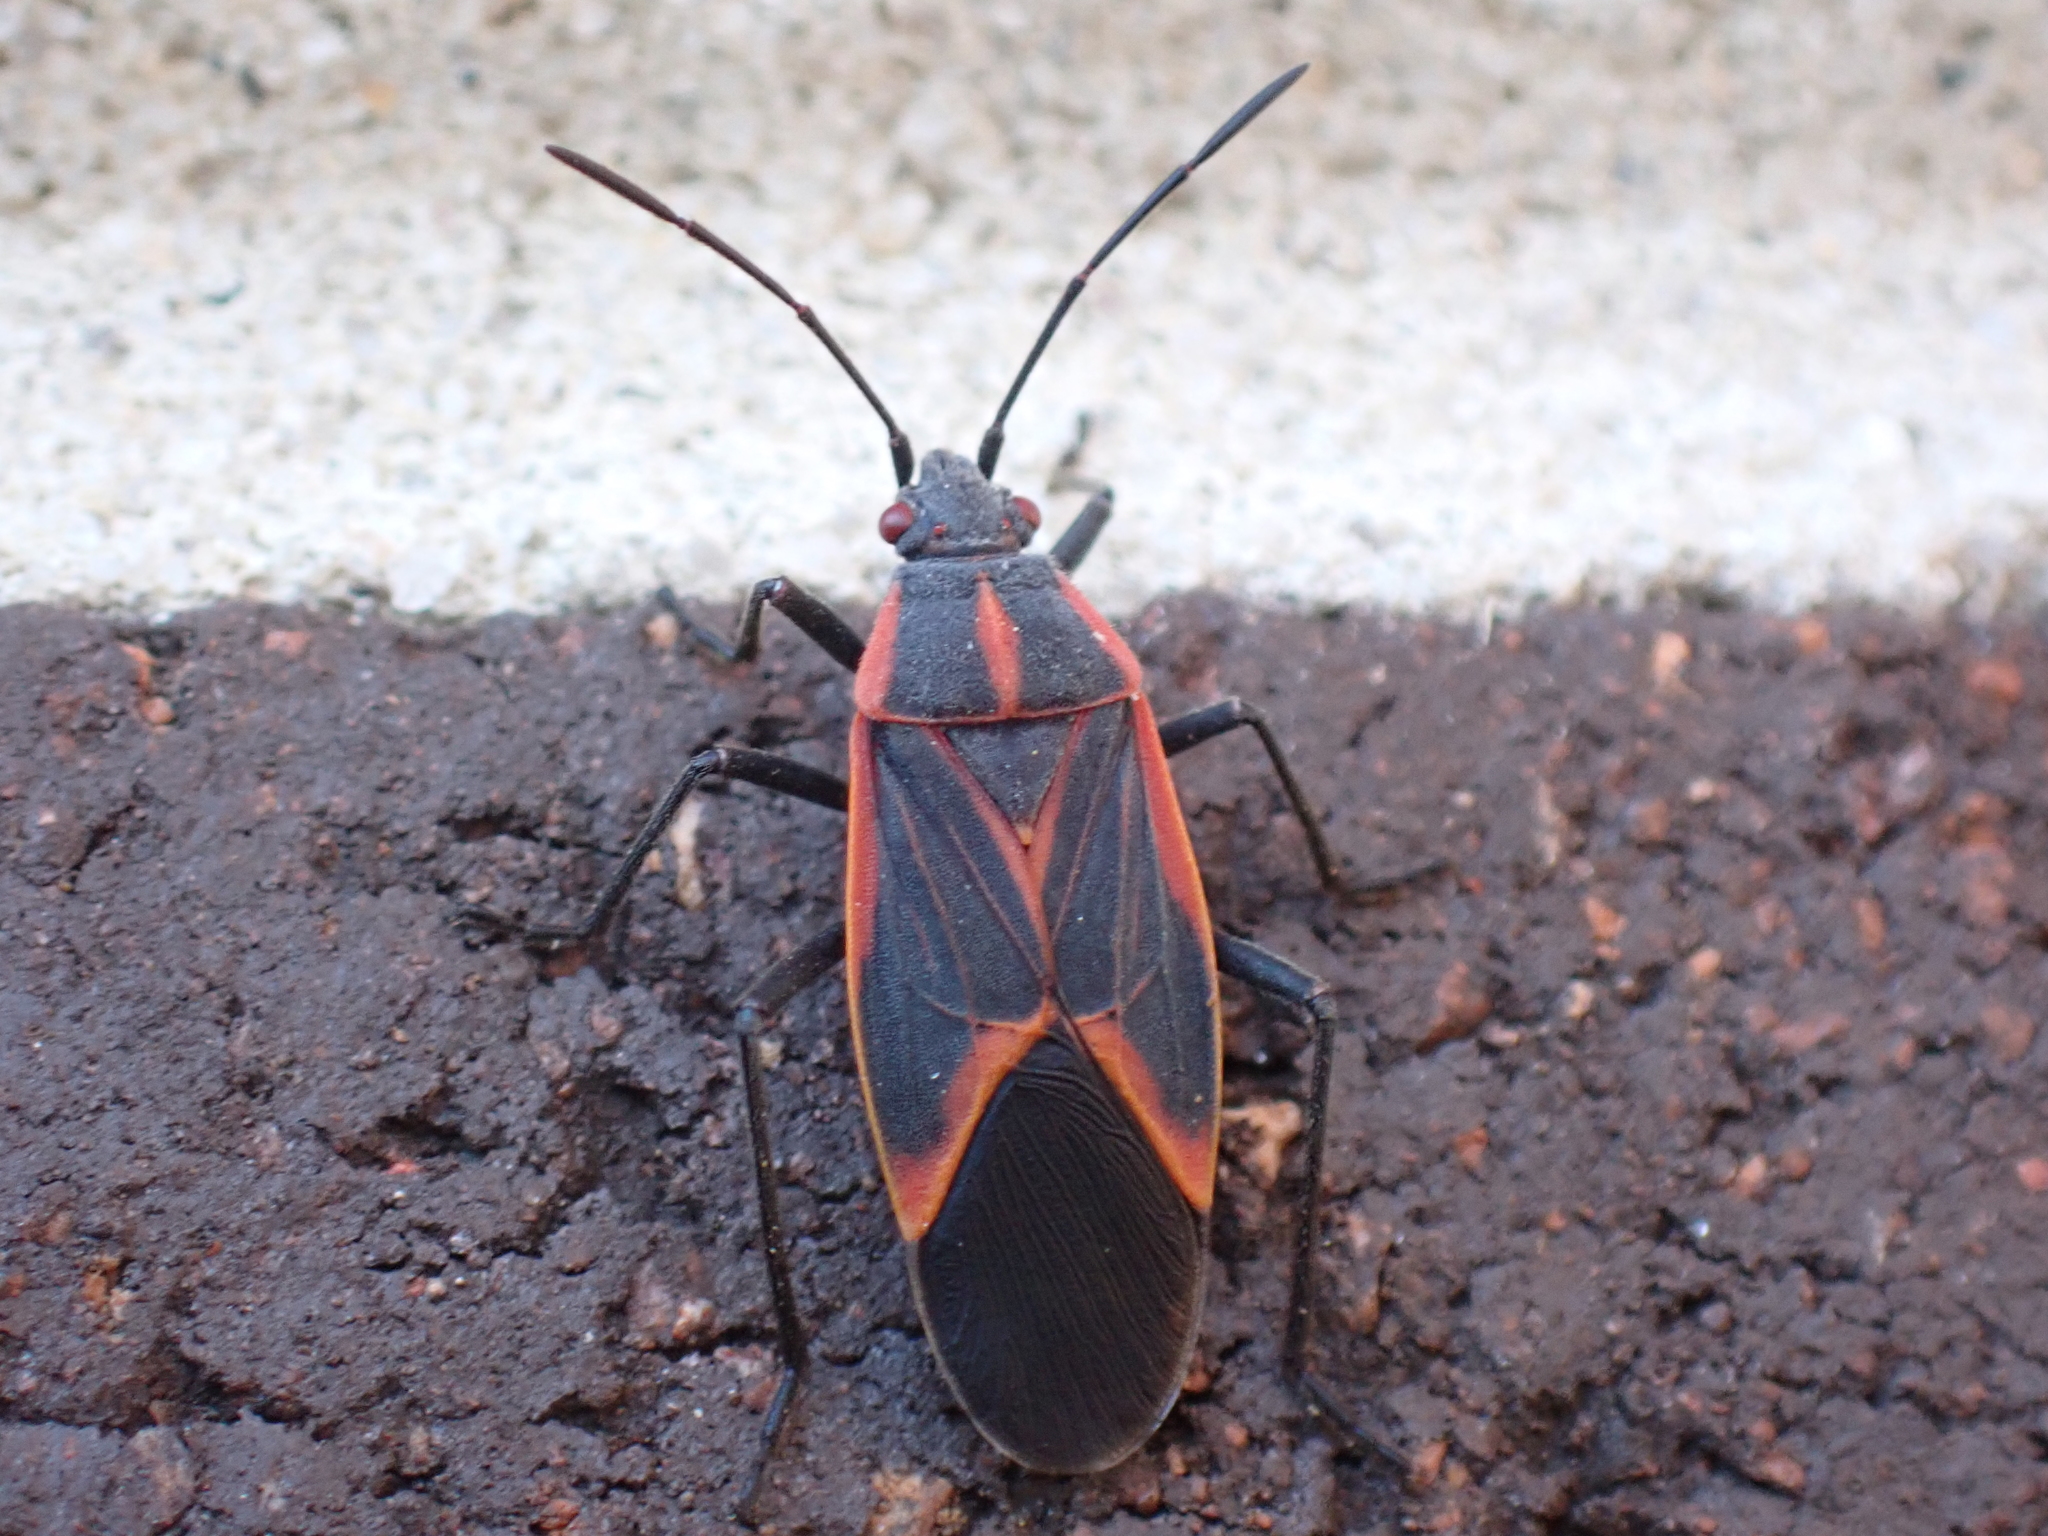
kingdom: Animalia
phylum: Arthropoda
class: Insecta
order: Hemiptera
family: Rhopalidae
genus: Boisea
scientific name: Boisea trivittata
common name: Boxelder bug
